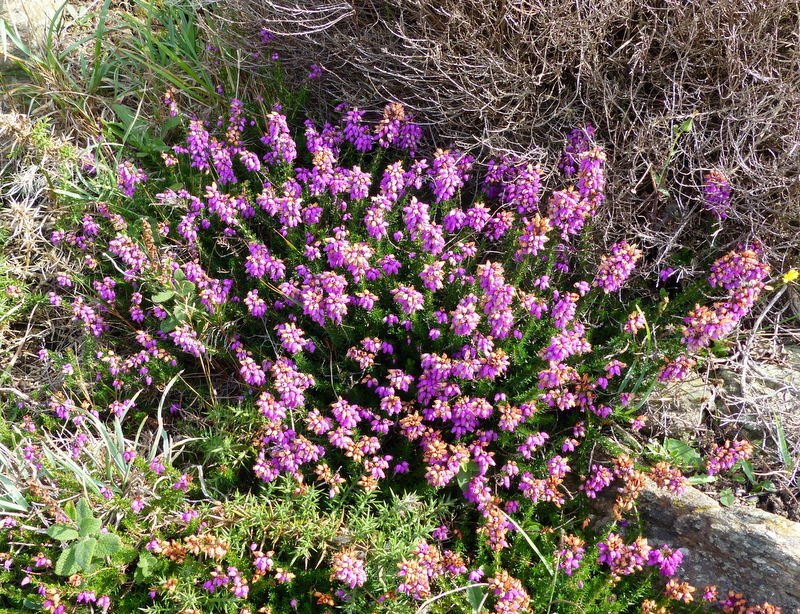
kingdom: Plantae
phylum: Tracheophyta
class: Magnoliopsida
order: Ericales
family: Ericaceae
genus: Erica
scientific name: Erica cinerea
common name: Bell heather
